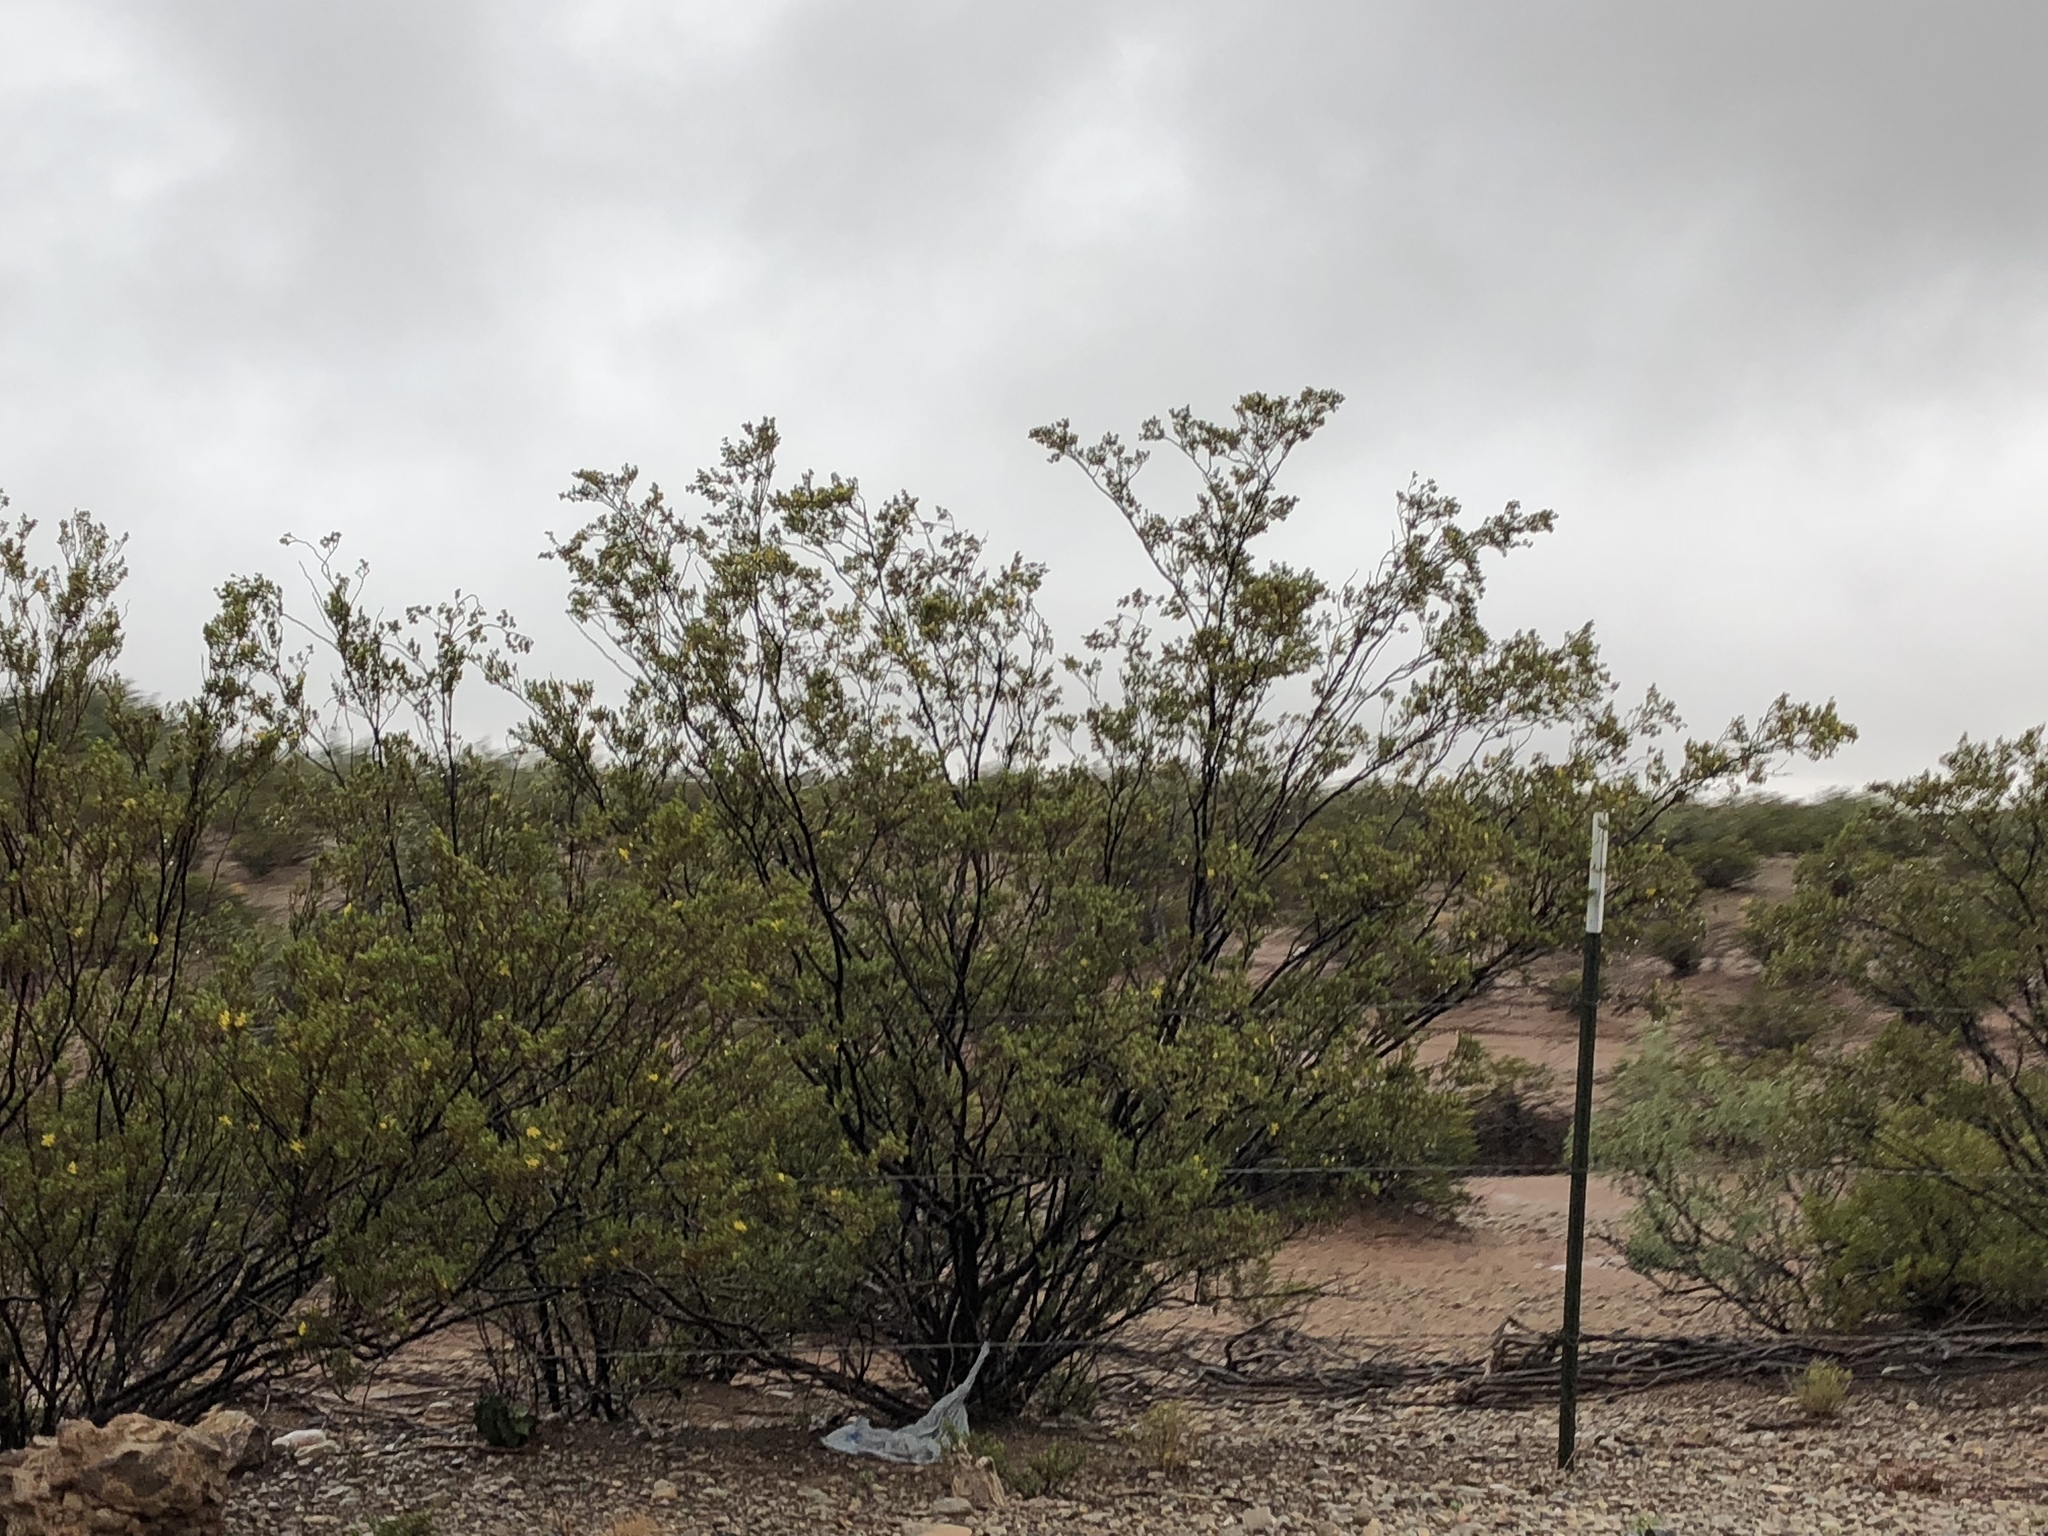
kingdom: Plantae
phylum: Tracheophyta
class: Magnoliopsida
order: Zygophyllales
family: Zygophyllaceae
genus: Larrea
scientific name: Larrea tridentata
